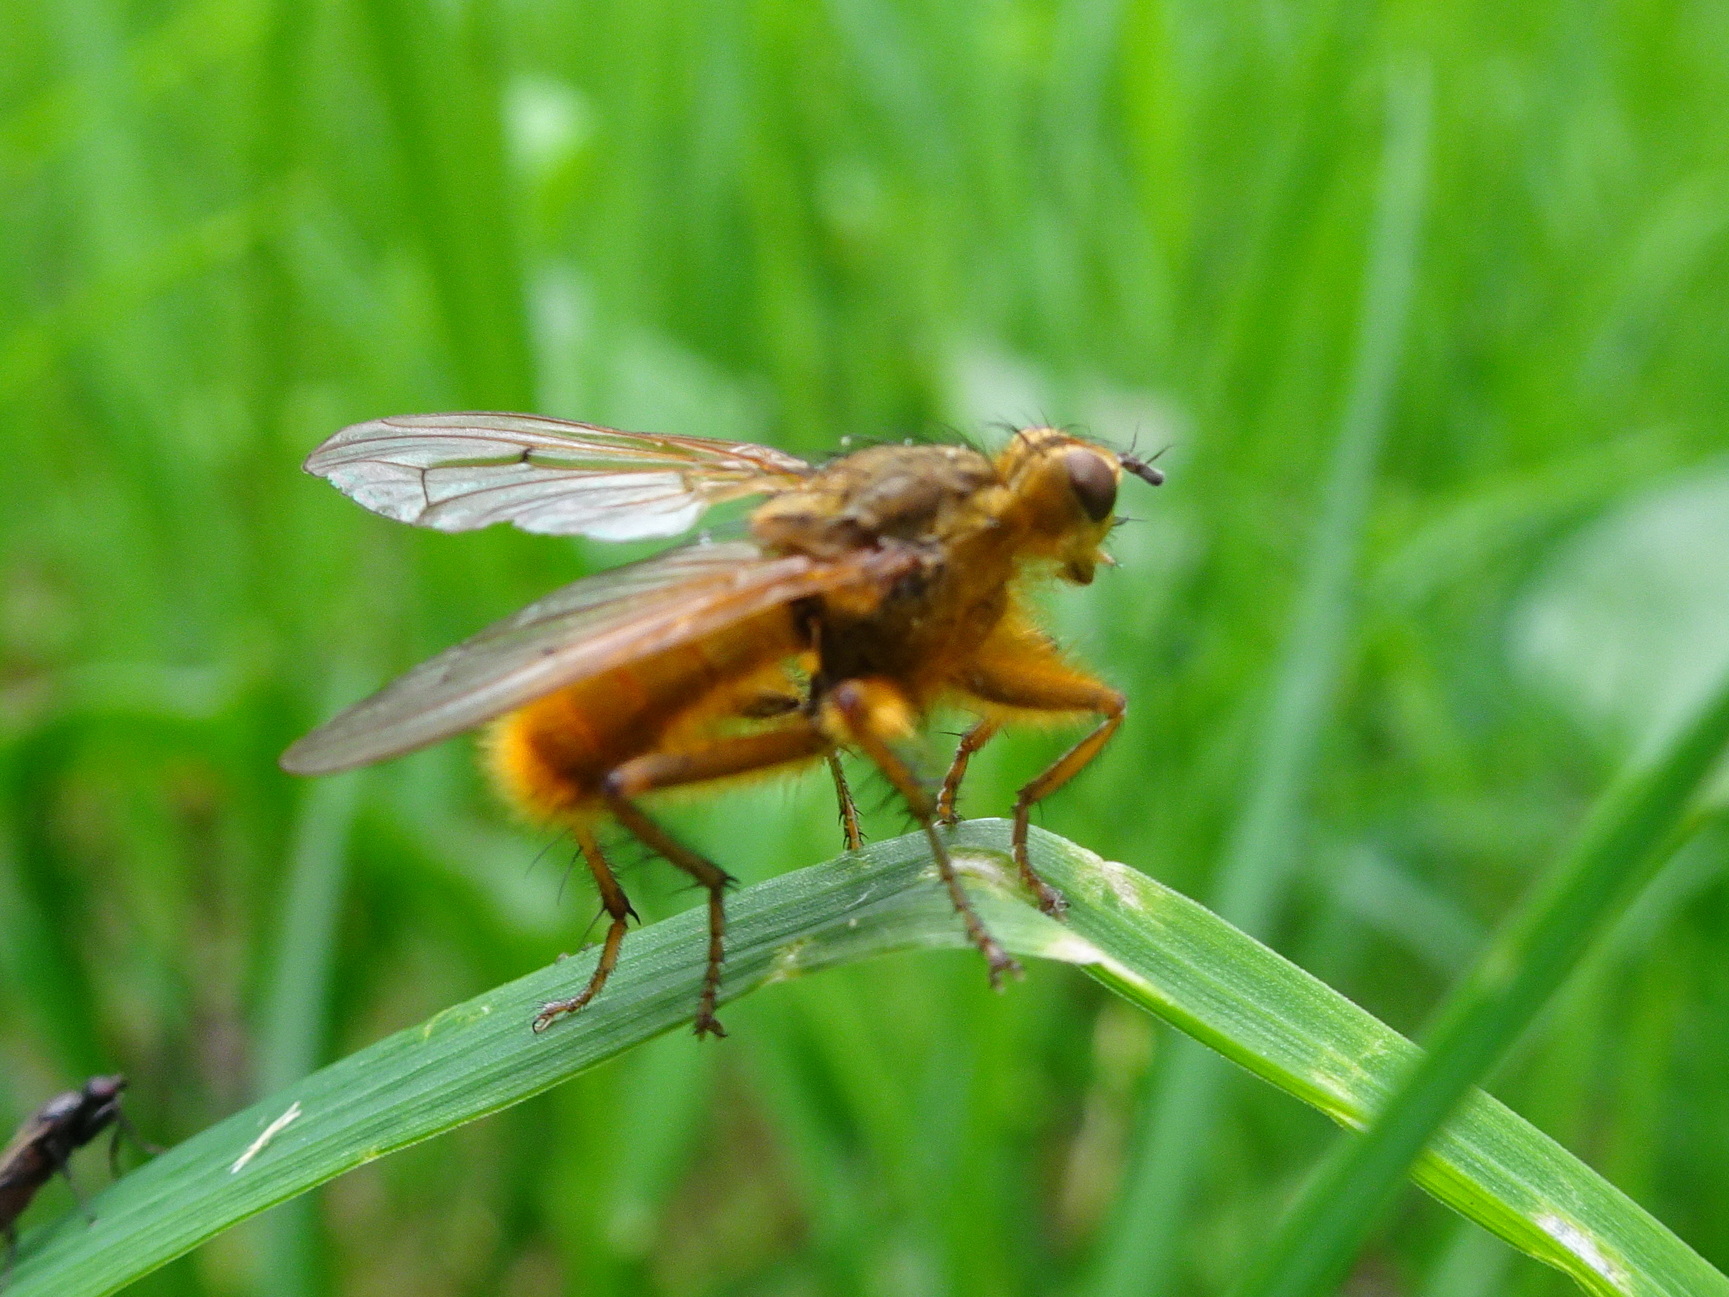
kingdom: Animalia
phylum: Arthropoda
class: Insecta
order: Diptera
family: Scathophagidae
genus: Scathophaga
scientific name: Scathophaga stercoraria
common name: Yellow dung fly
